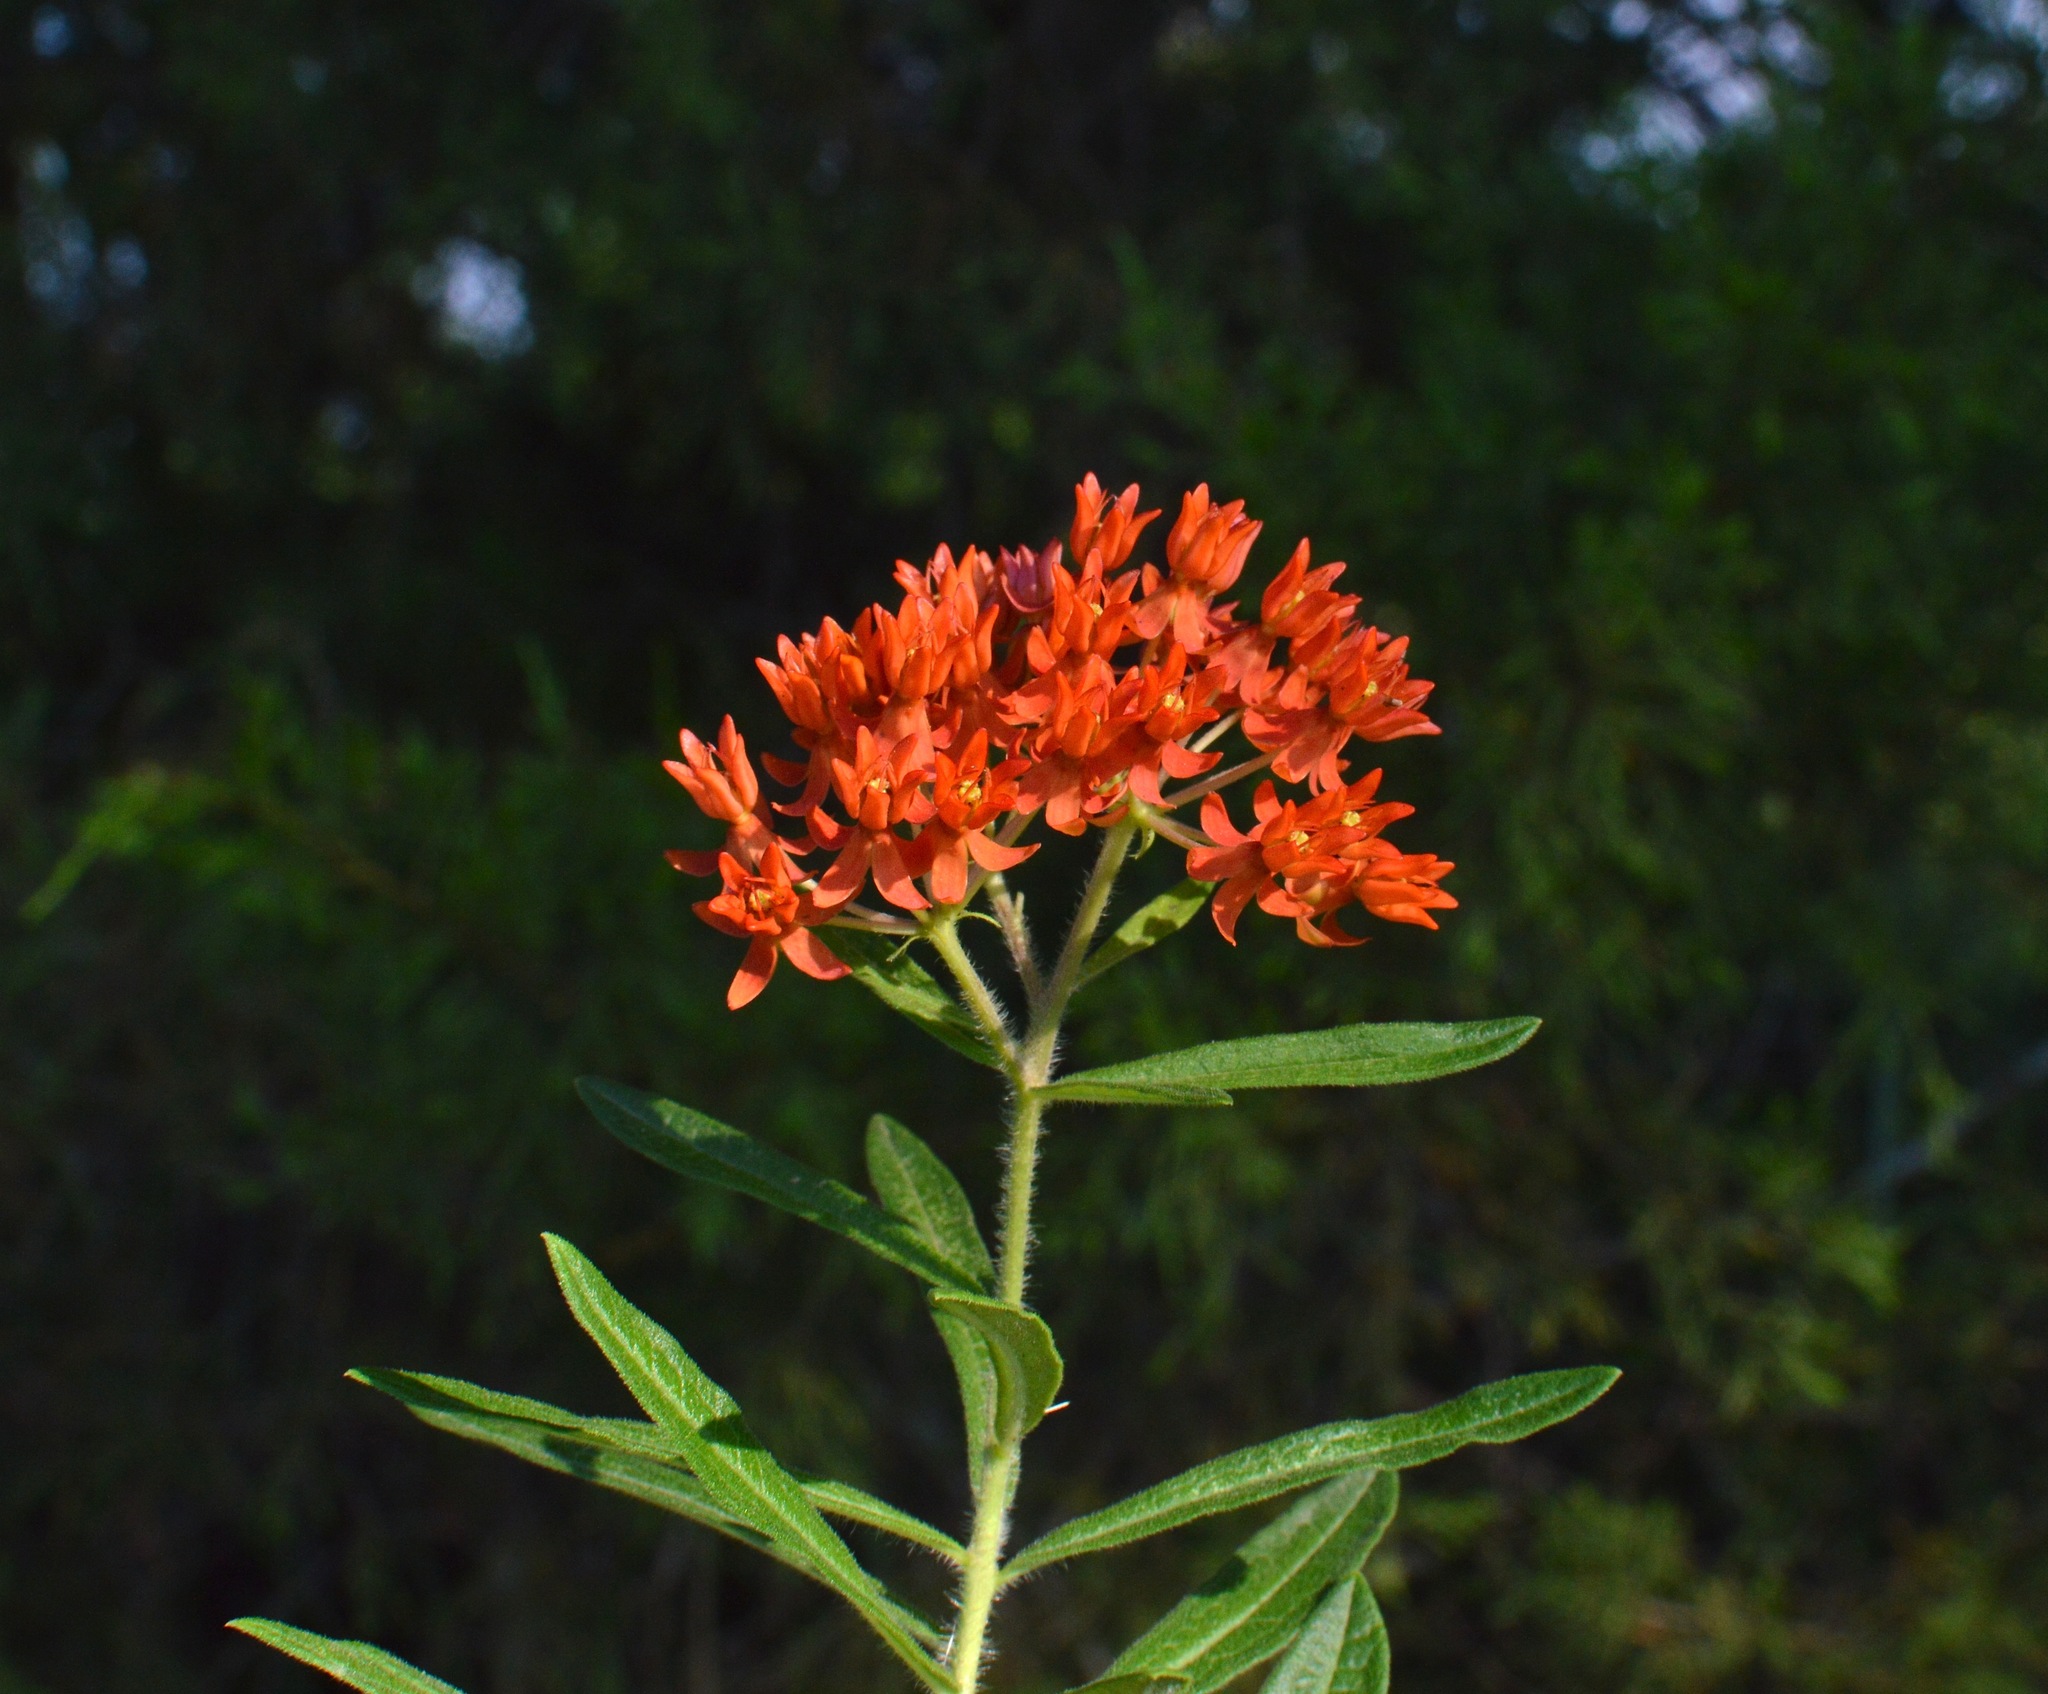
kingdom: Plantae
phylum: Tracheophyta
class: Magnoliopsida
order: Gentianales
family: Apocynaceae
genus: Asclepias
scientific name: Asclepias tuberosa
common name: Butterfly milkweed
